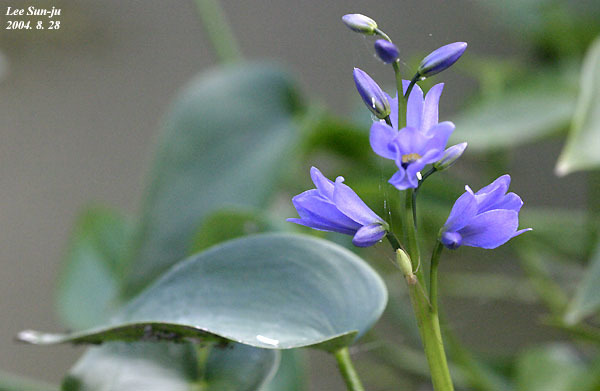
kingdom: Plantae
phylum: Tracheophyta
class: Liliopsida
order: Commelinales
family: Pontederiaceae
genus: Pontederia
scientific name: Pontederia korsakowii
